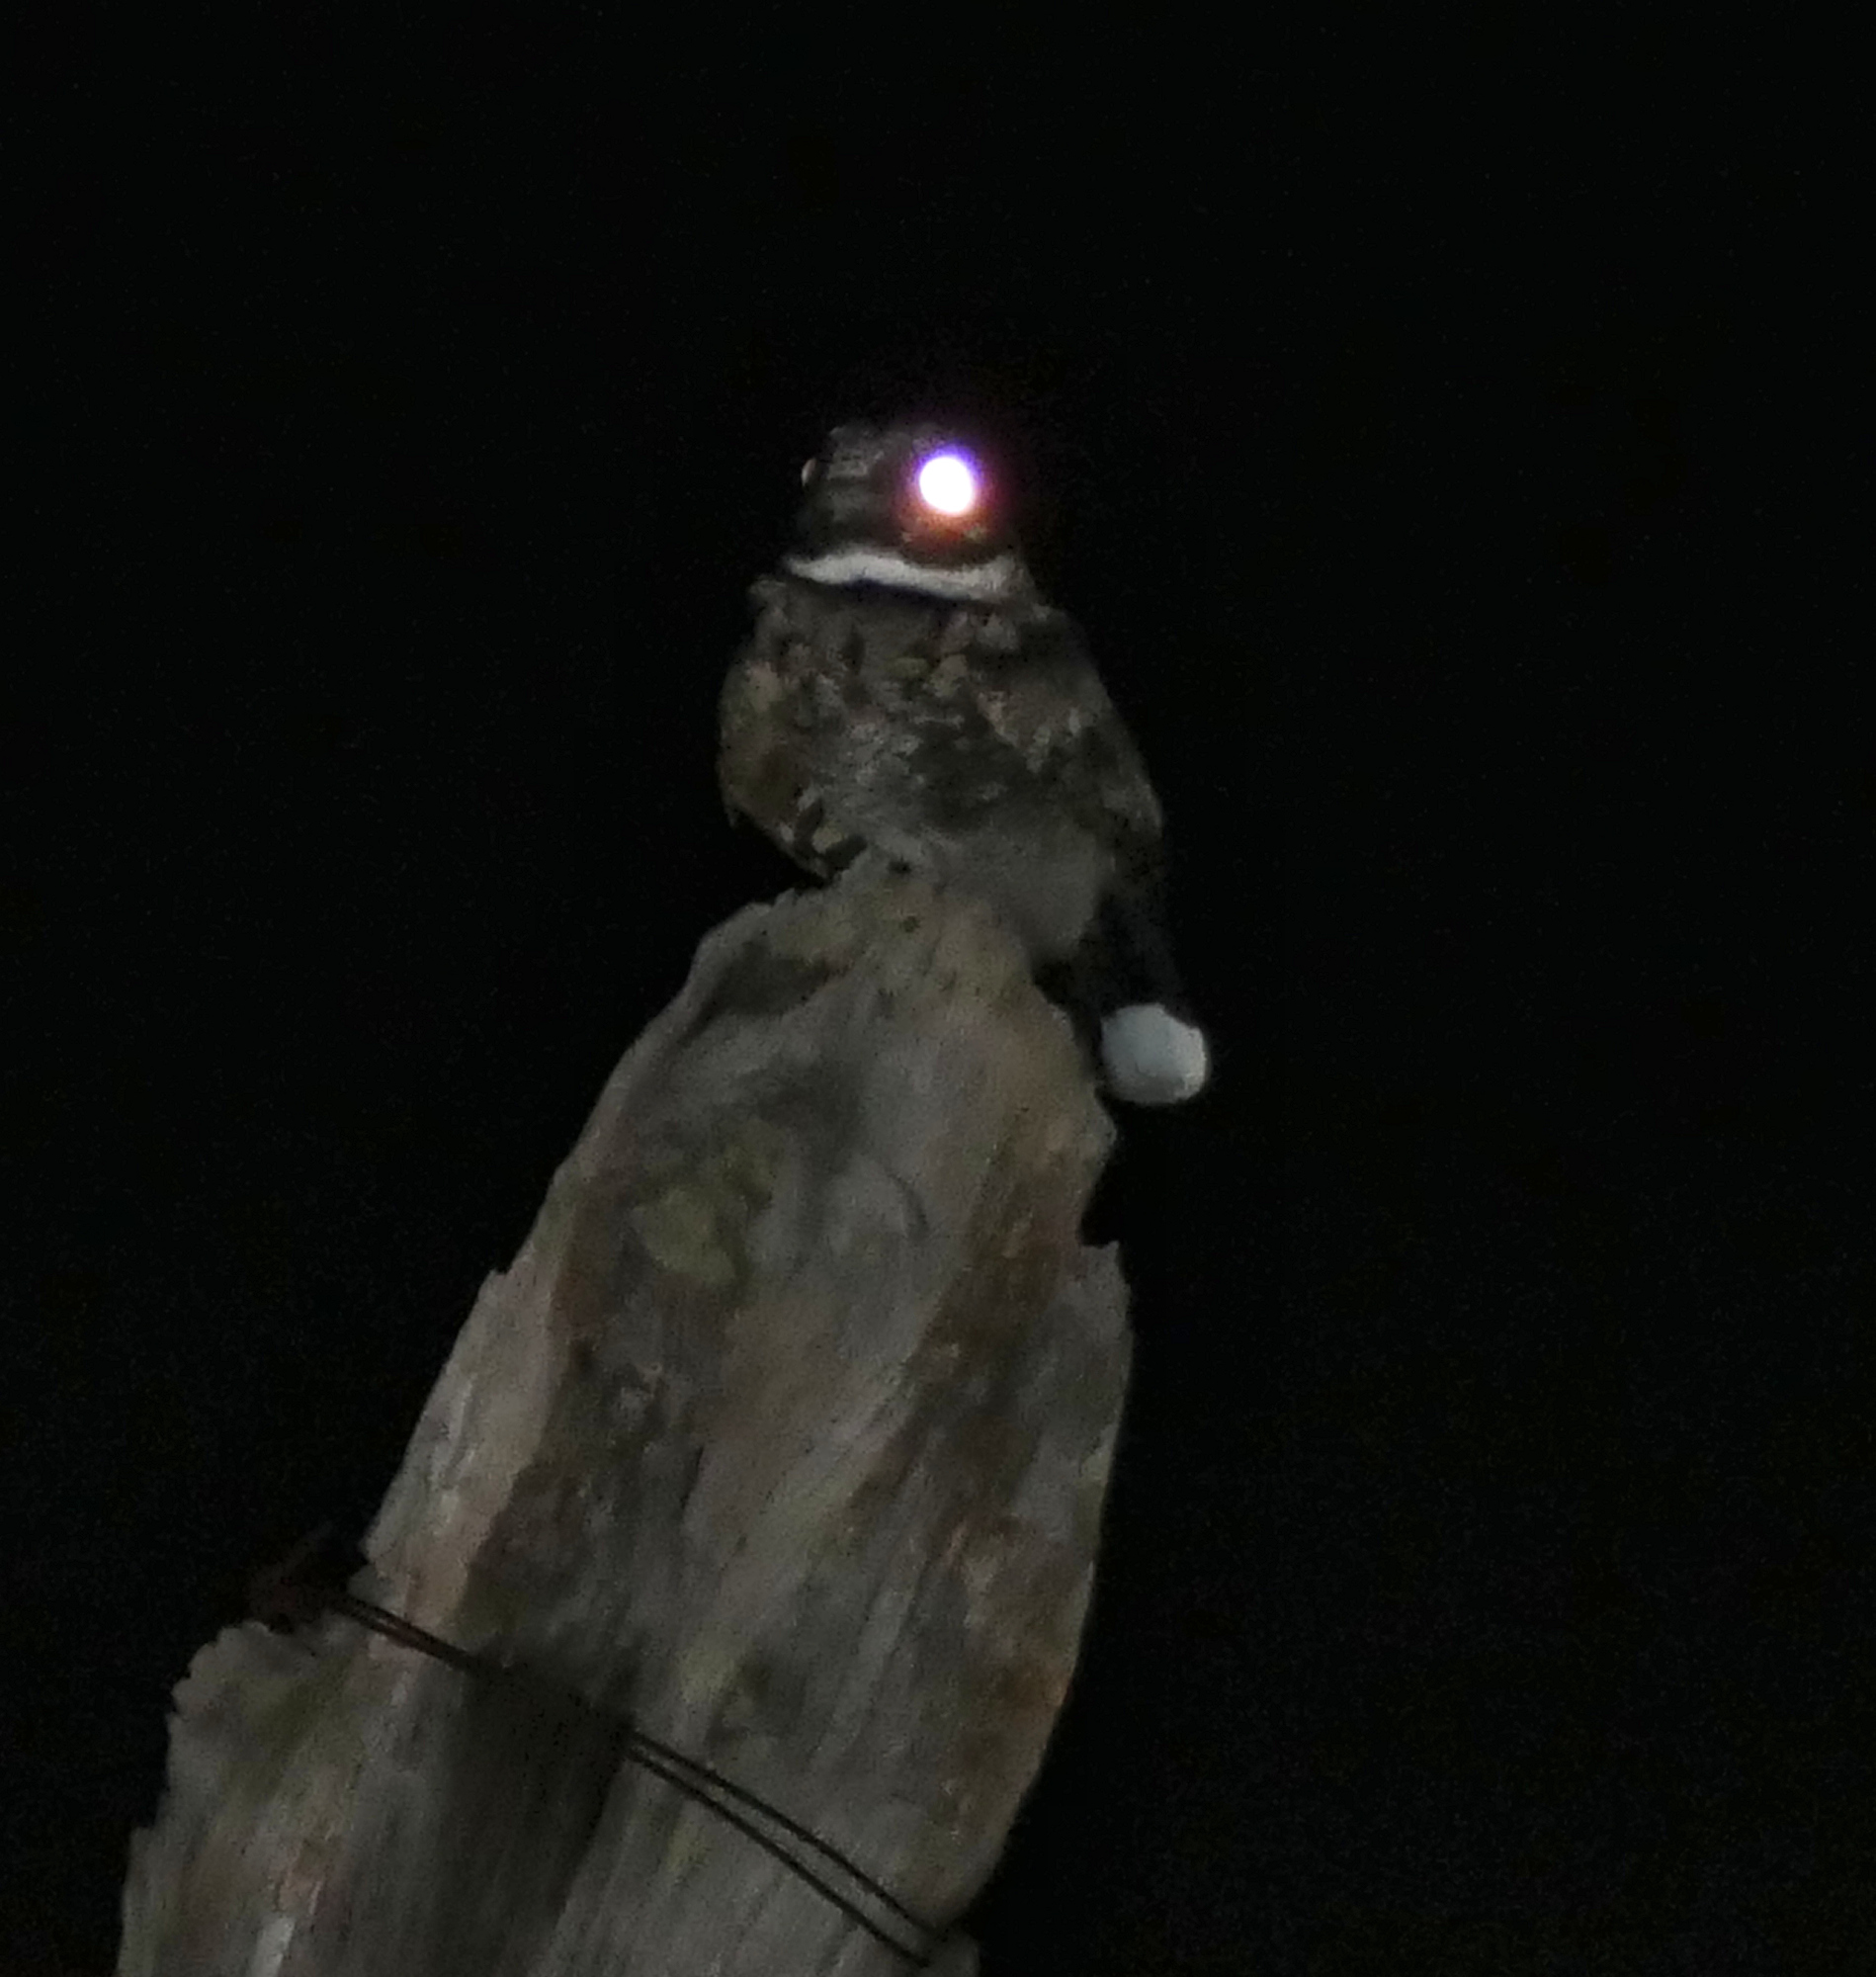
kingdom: Animalia
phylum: Chordata
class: Aves
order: Caprimulgiformes
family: Caprimulgidae
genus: Phalaenoptilus
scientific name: Phalaenoptilus nuttallii
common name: Common poorwill
